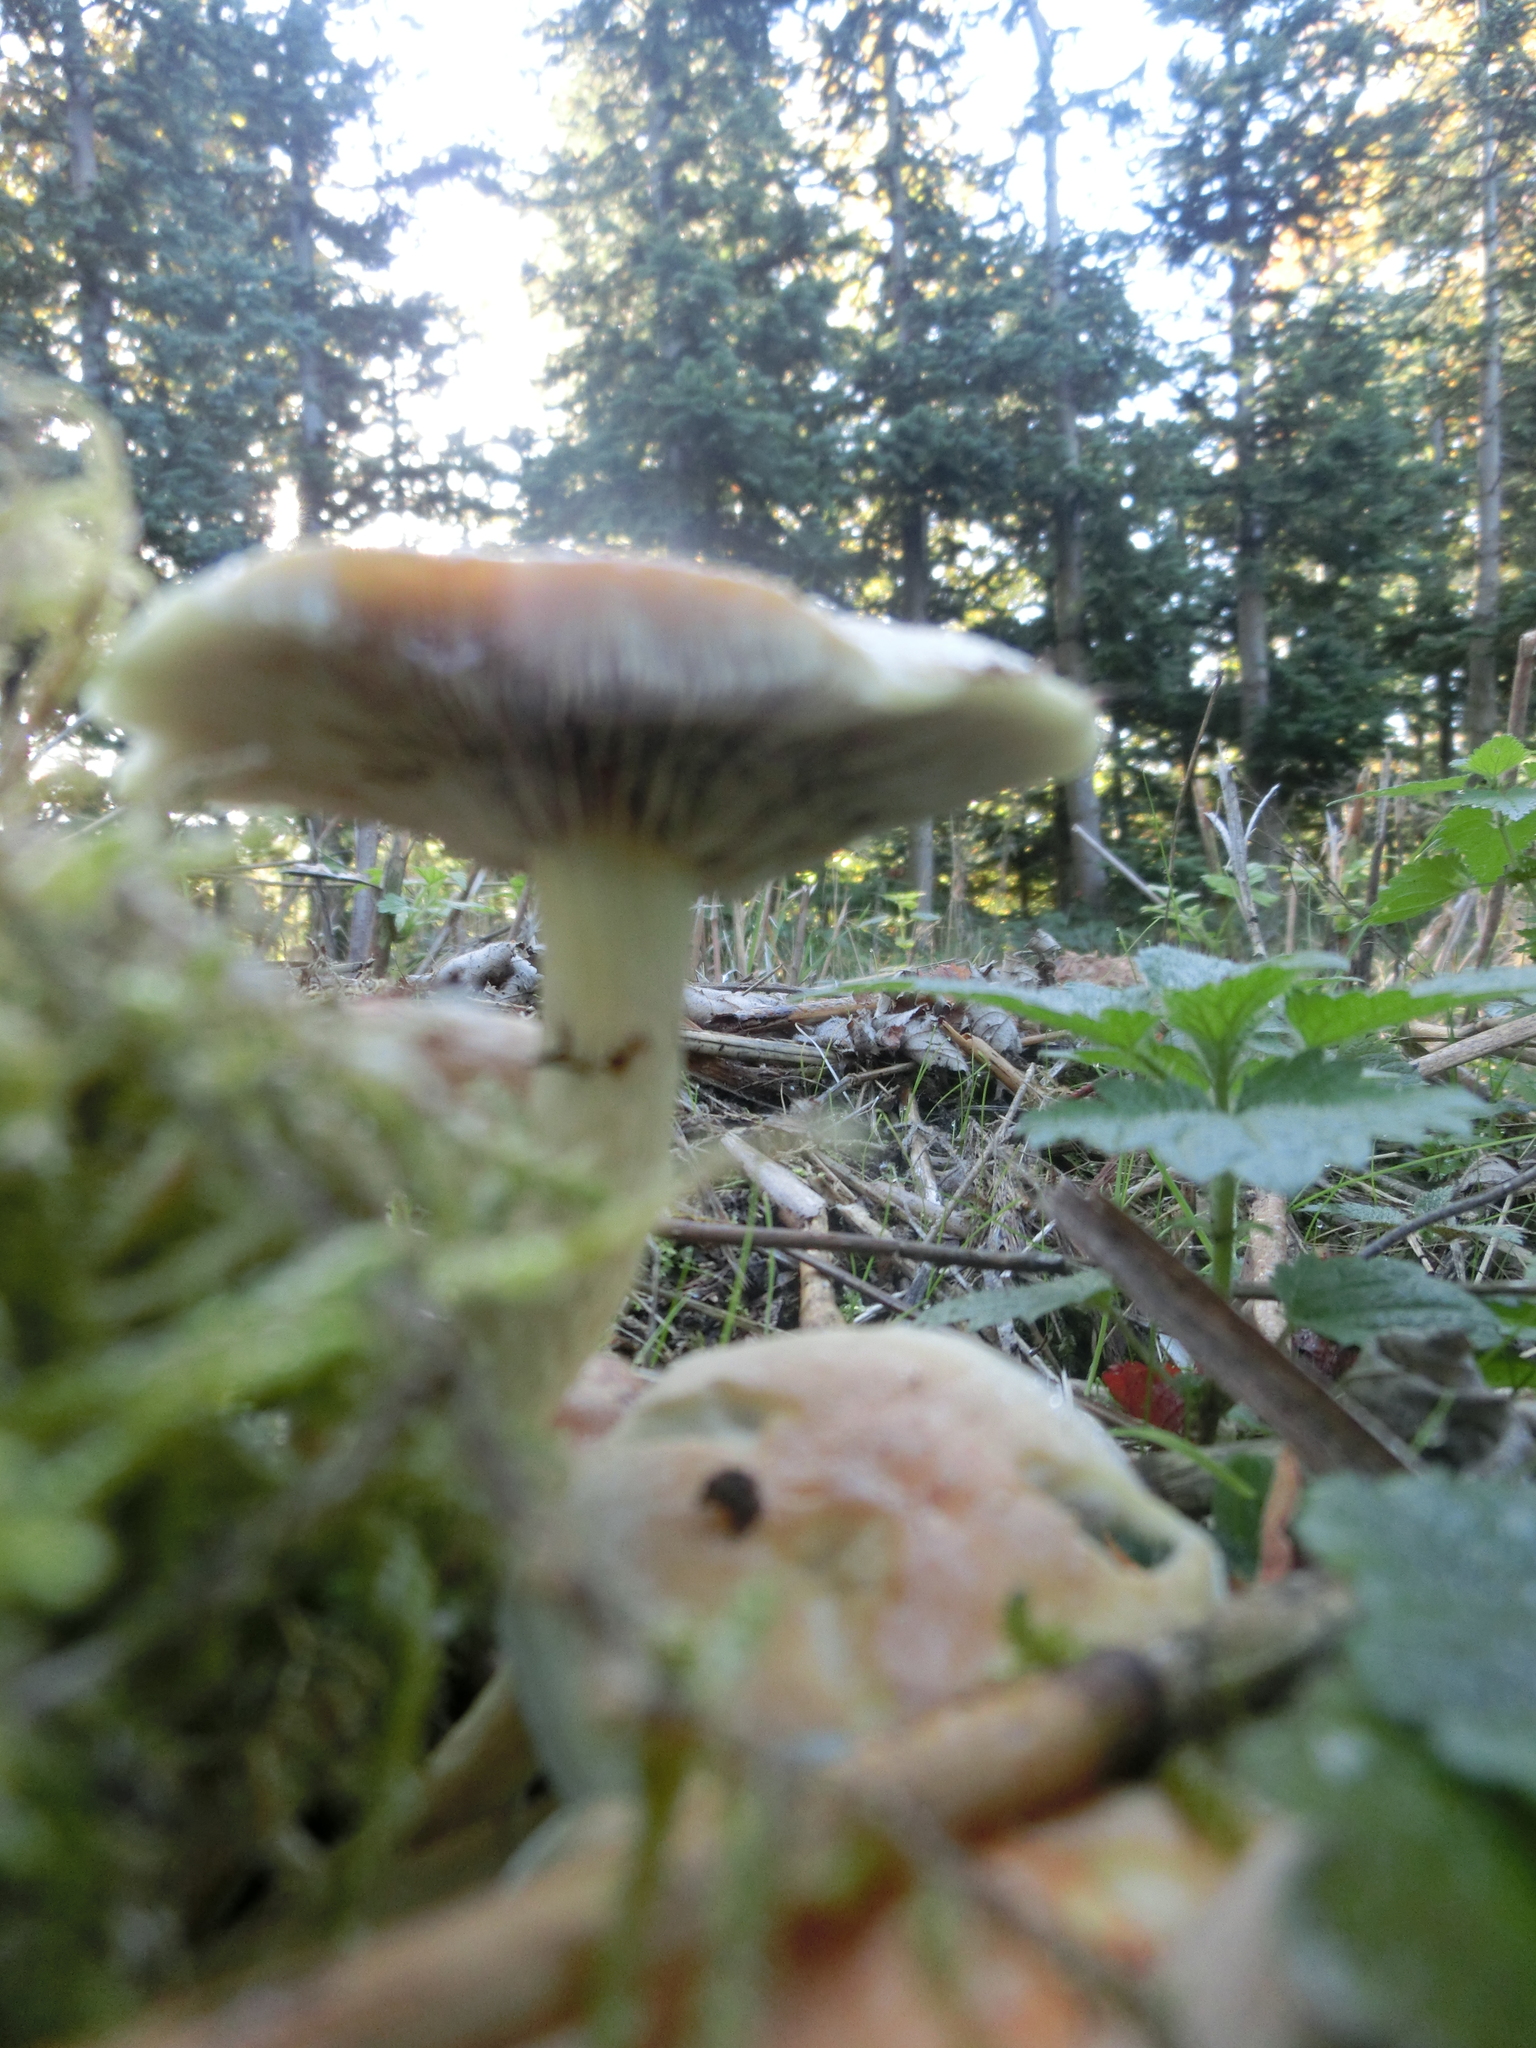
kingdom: Fungi
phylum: Basidiomycota
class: Agaricomycetes
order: Agaricales
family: Strophariaceae
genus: Hypholoma
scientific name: Hypholoma fasciculare
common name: Sulphur tuft
